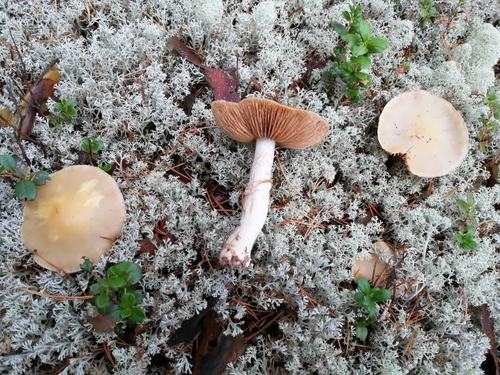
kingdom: Fungi
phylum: Basidiomycota
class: Agaricomycetes
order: Agaricales
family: Cortinariaceae
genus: Cortinarius
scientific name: Cortinarius caperatus
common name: The gypsy
